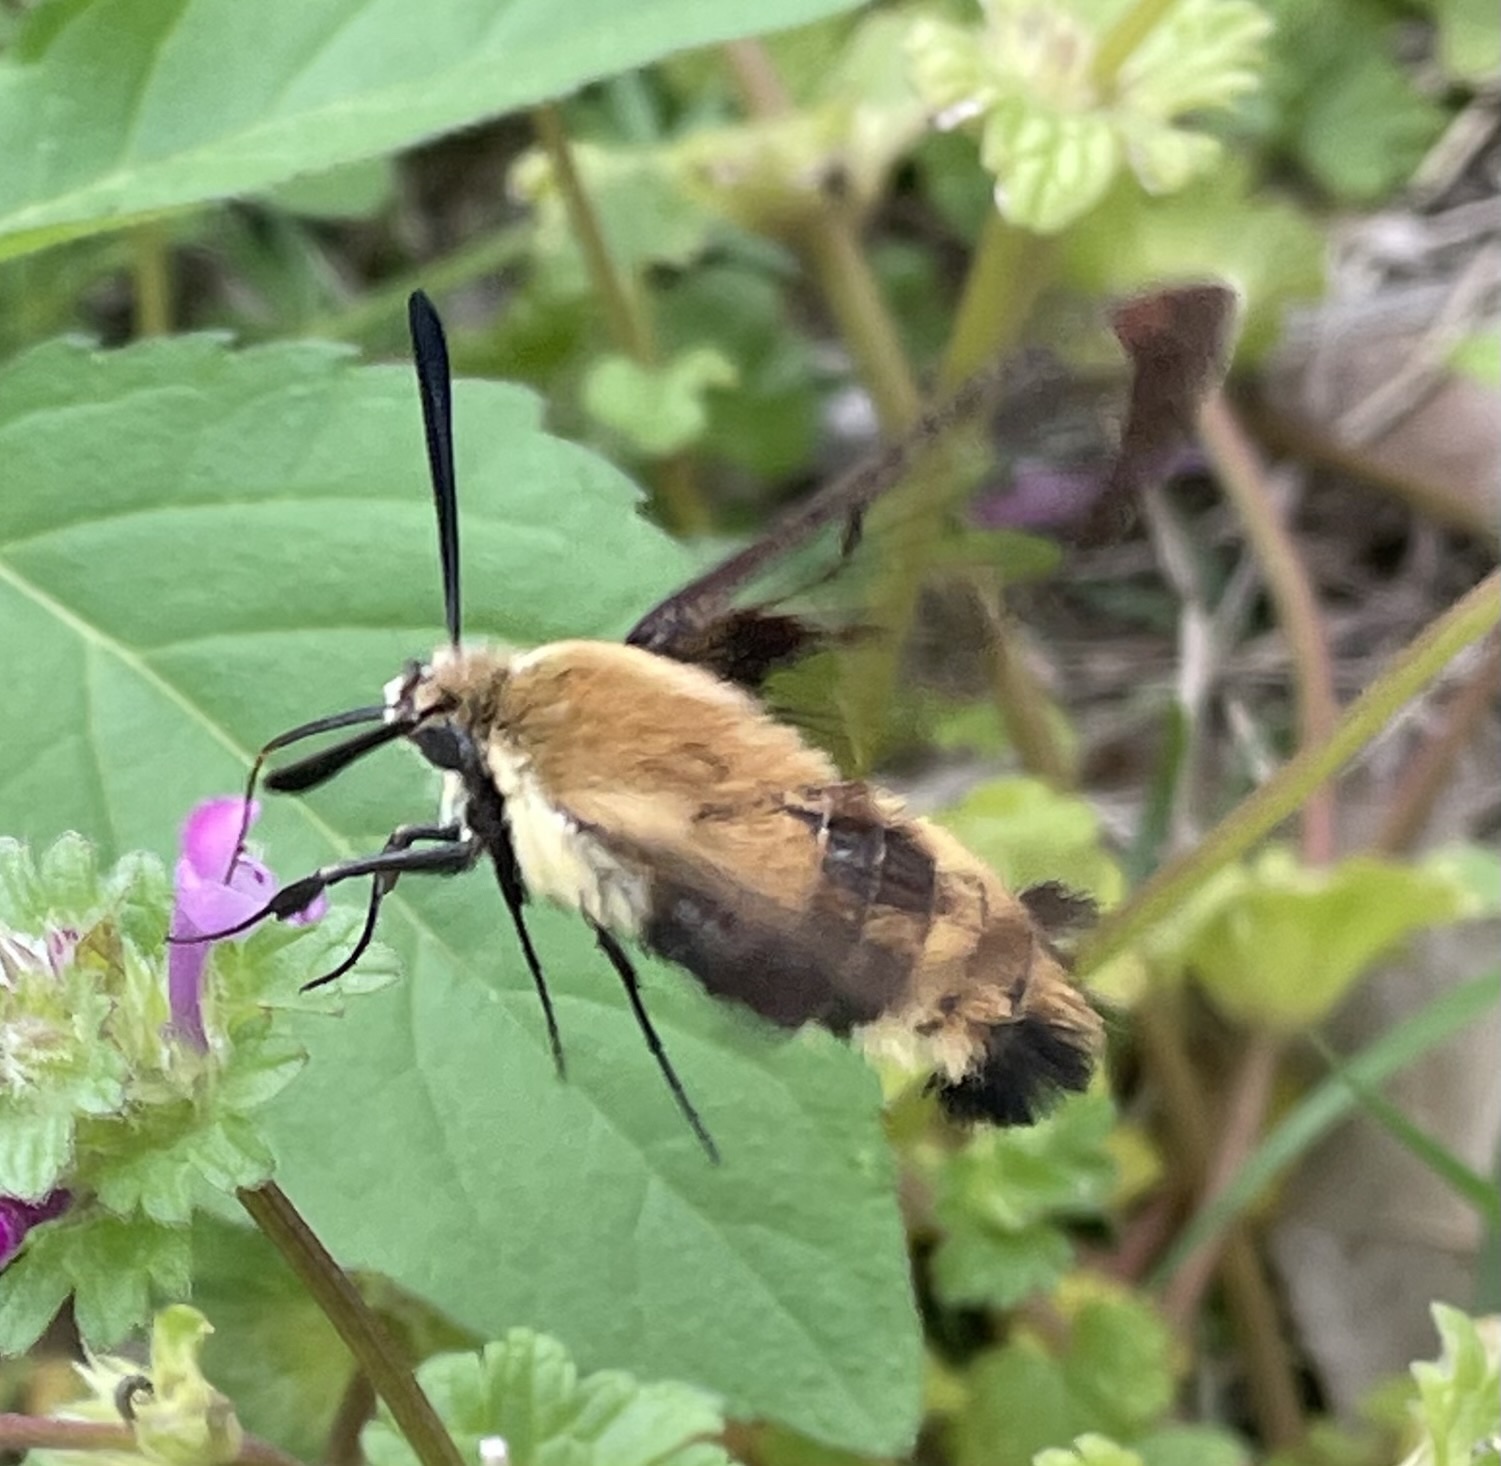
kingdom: Animalia
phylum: Arthropoda
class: Insecta
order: Lepidoptera
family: Sphingidae
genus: Hemaris
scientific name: Hemaris diffinis
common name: Bumblebee moth
